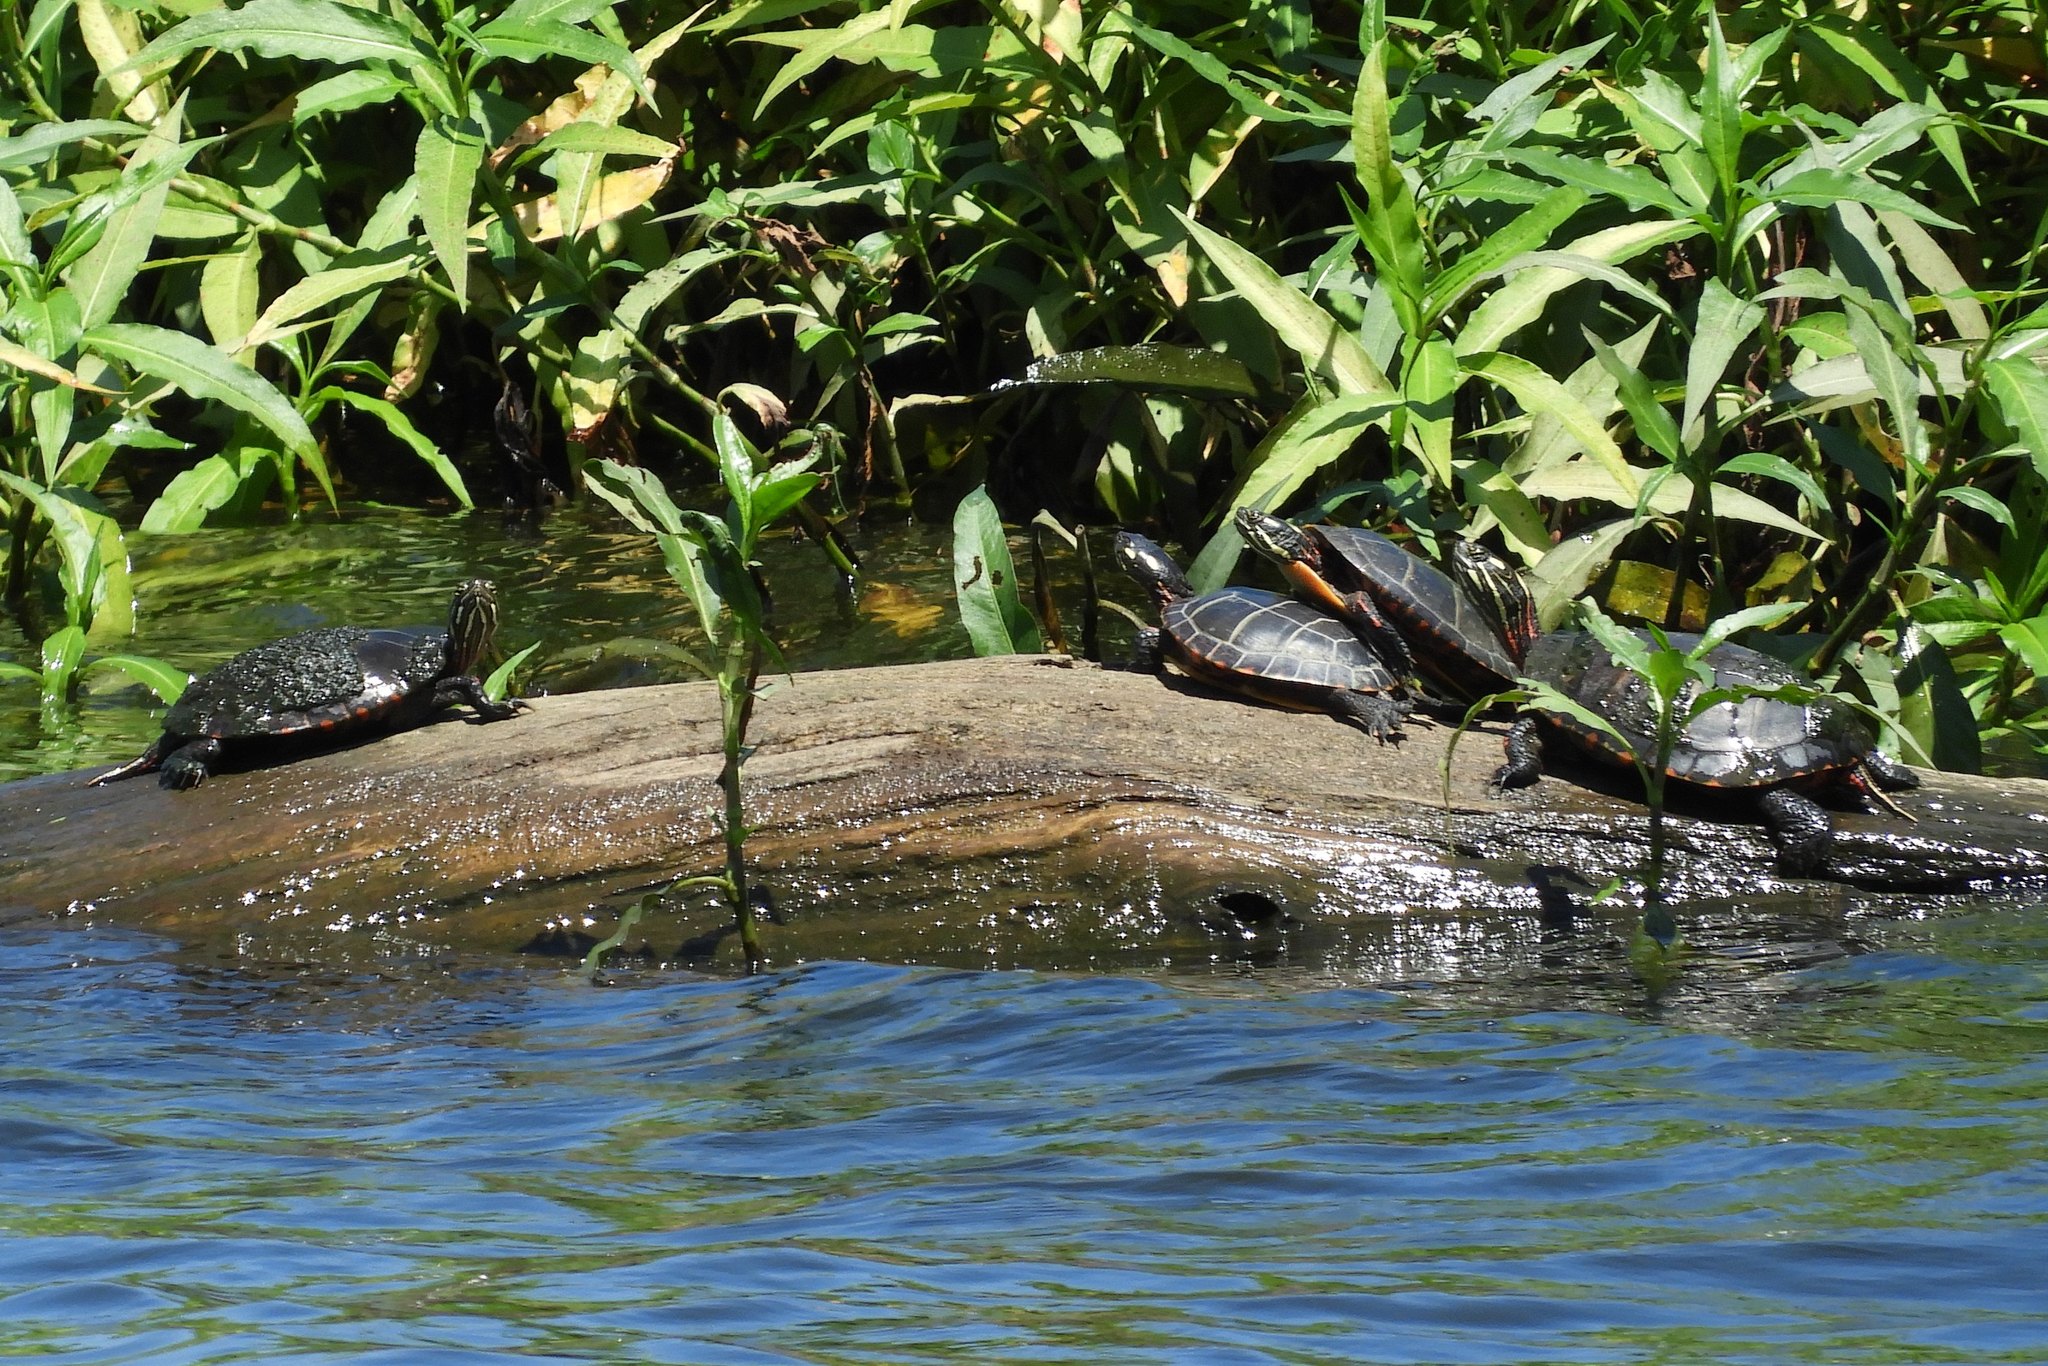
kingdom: Animalia
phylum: Chordata
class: Testudines
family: Emydidae
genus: Chrysemys
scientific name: Chrysemys picta
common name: Painted turtle
